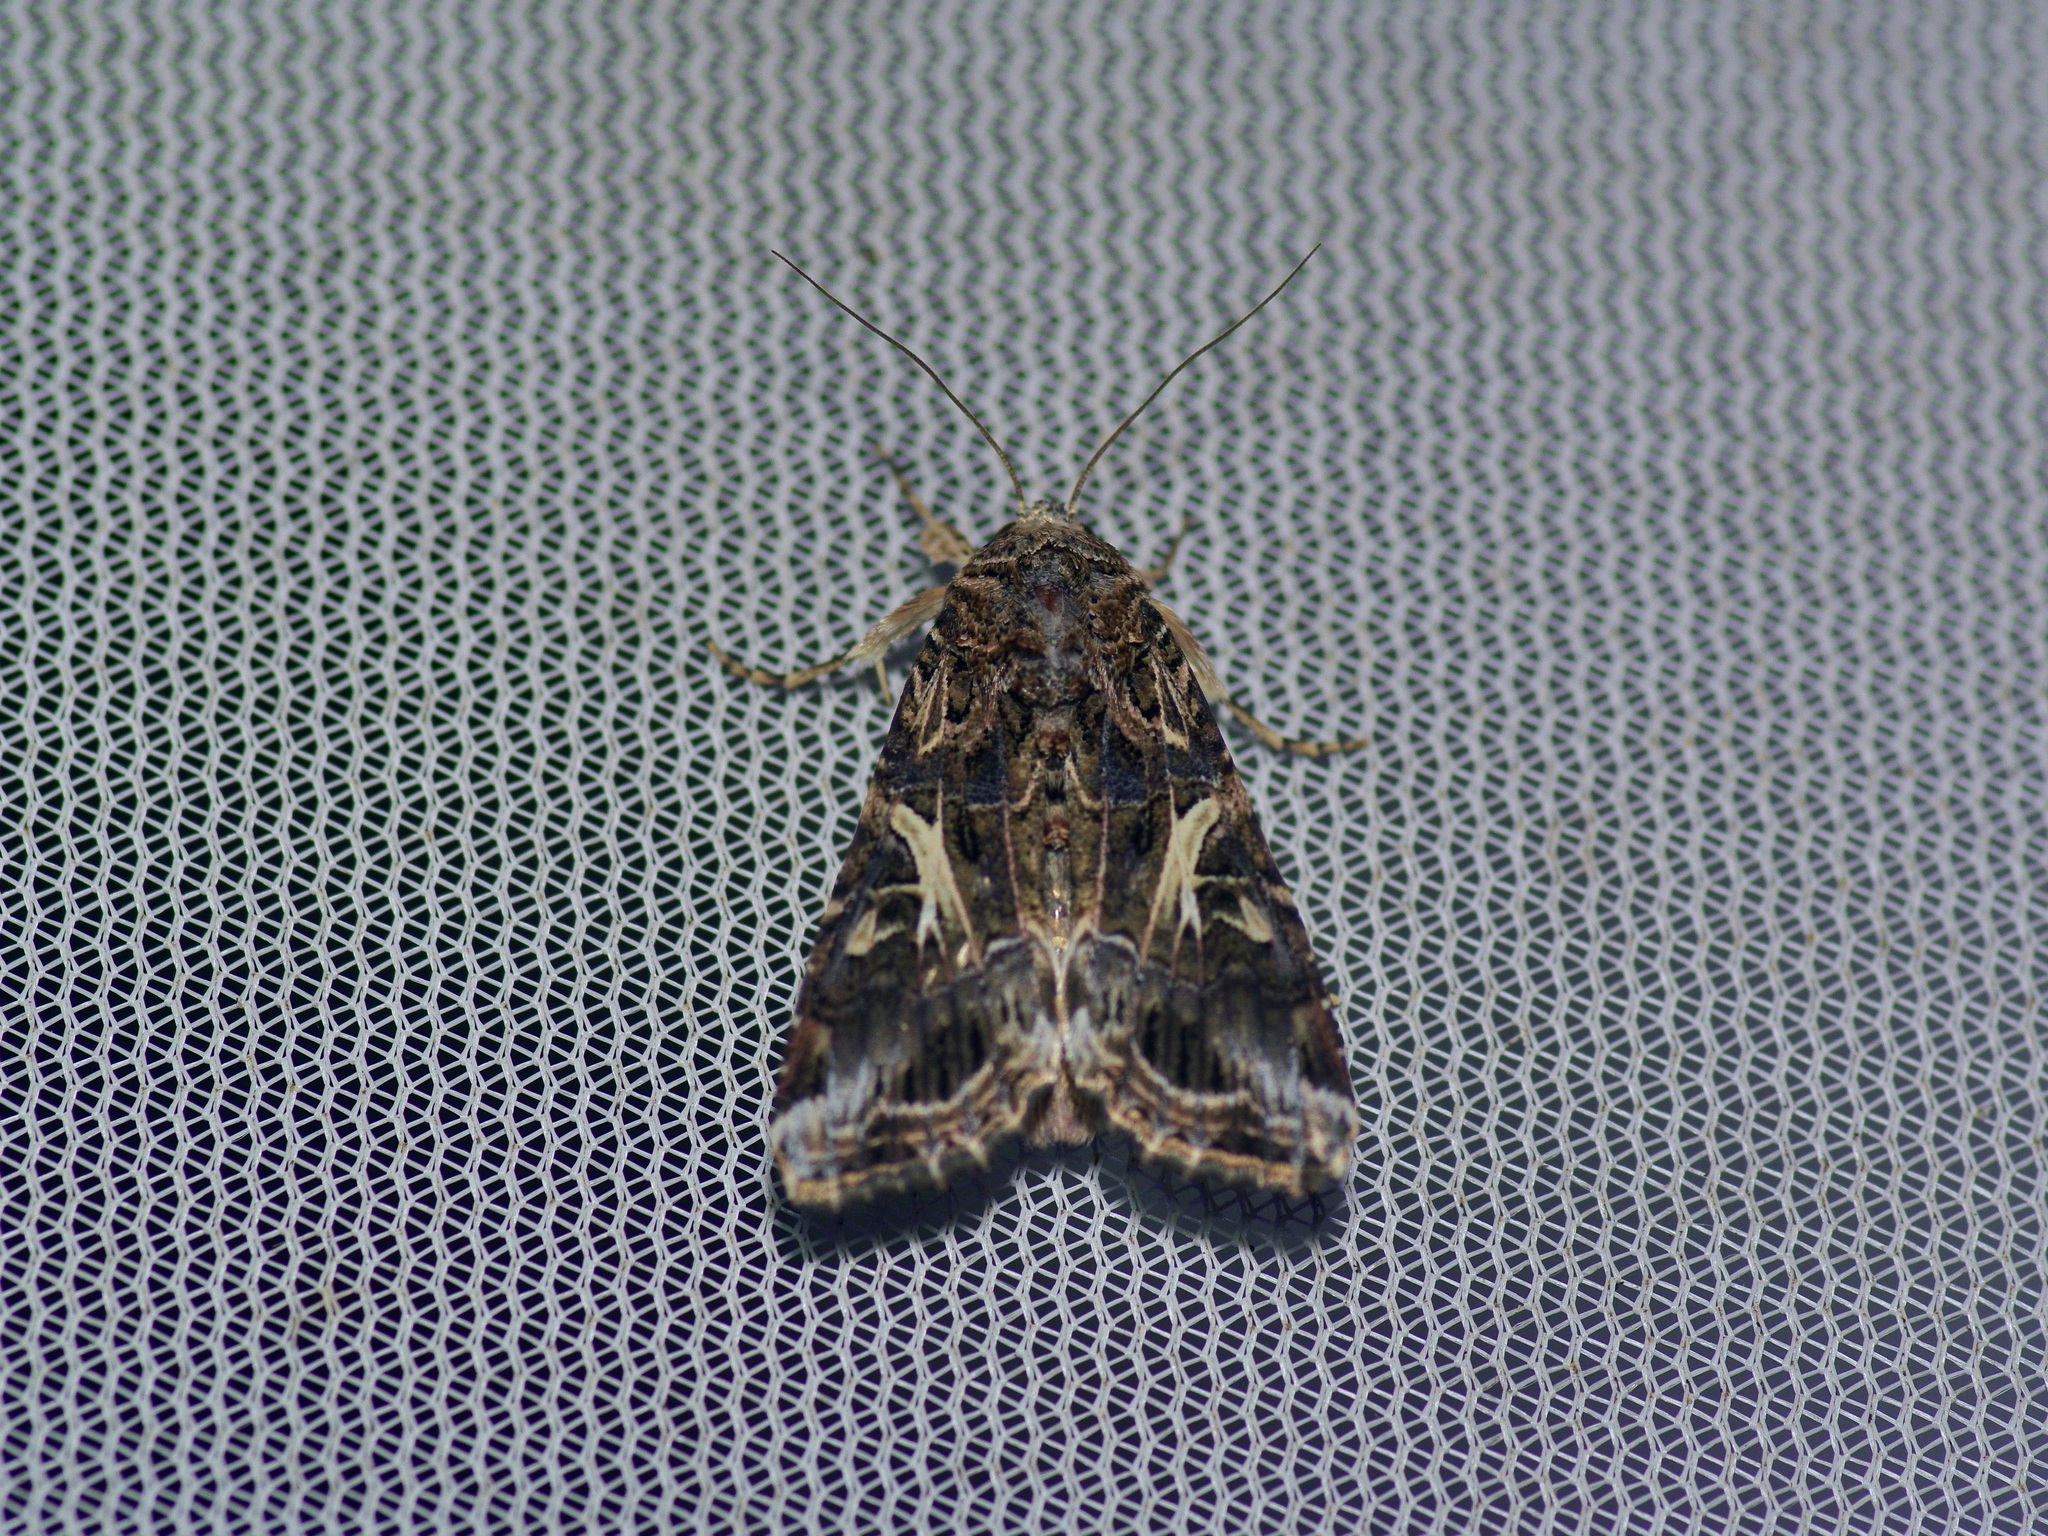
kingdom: Animalia
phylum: Arthropoda
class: Insecta
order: Lepidoptera
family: Noctuidae
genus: Spodoptera
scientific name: Spodoptera ornithogalli
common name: Yellow-striped armyworm
